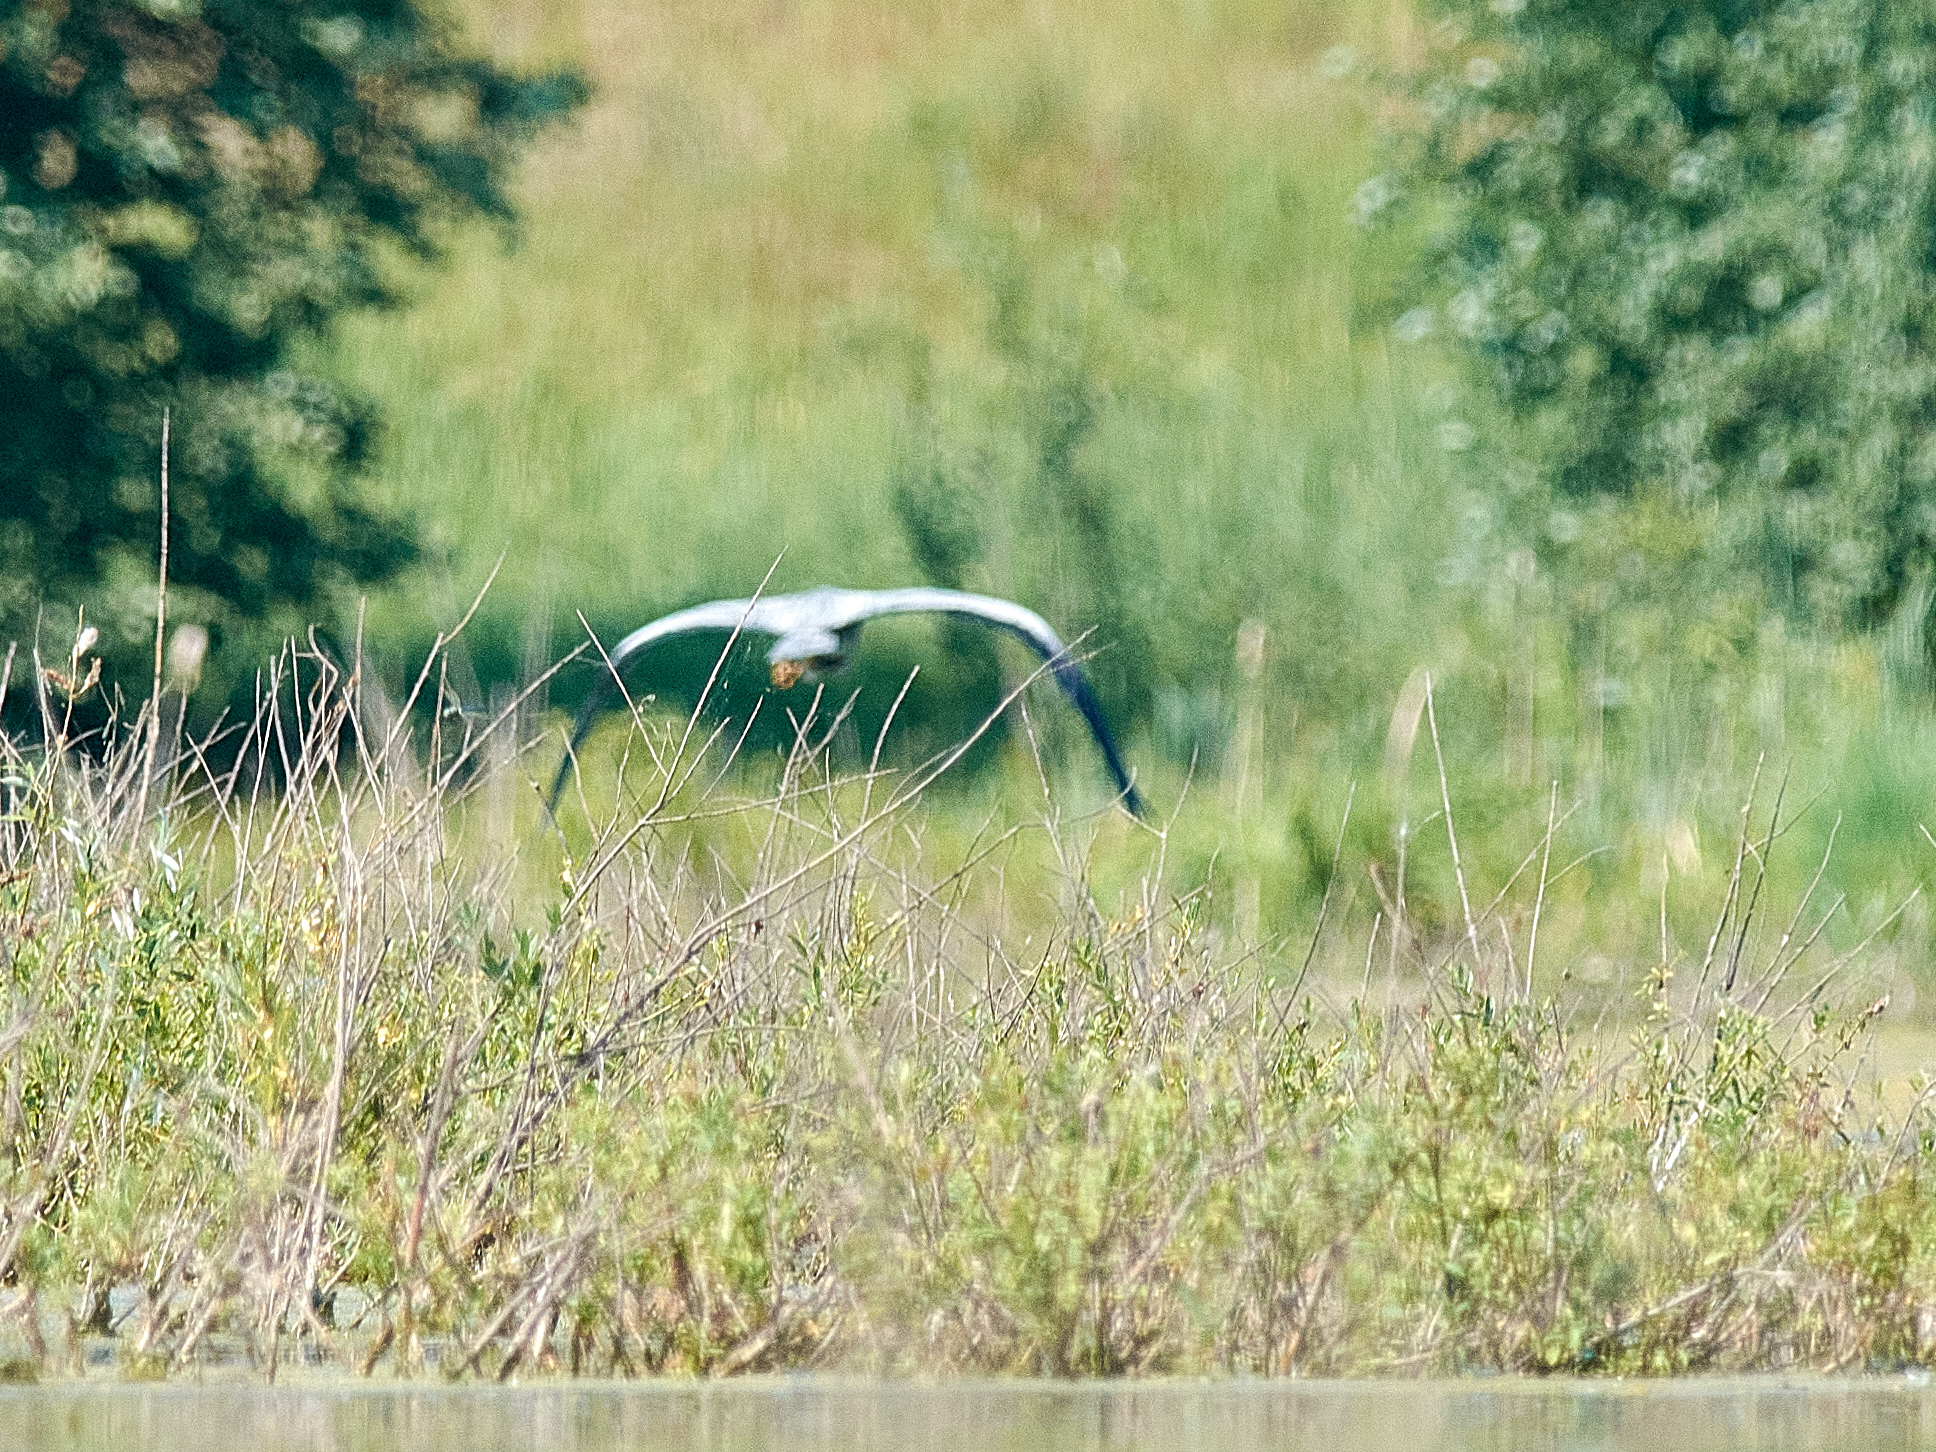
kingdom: Animalia
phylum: Chordata
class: Aves
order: Pelecaniformes
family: Ardeidae
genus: Ardea
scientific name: Ardea cinerea
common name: Grey heron
